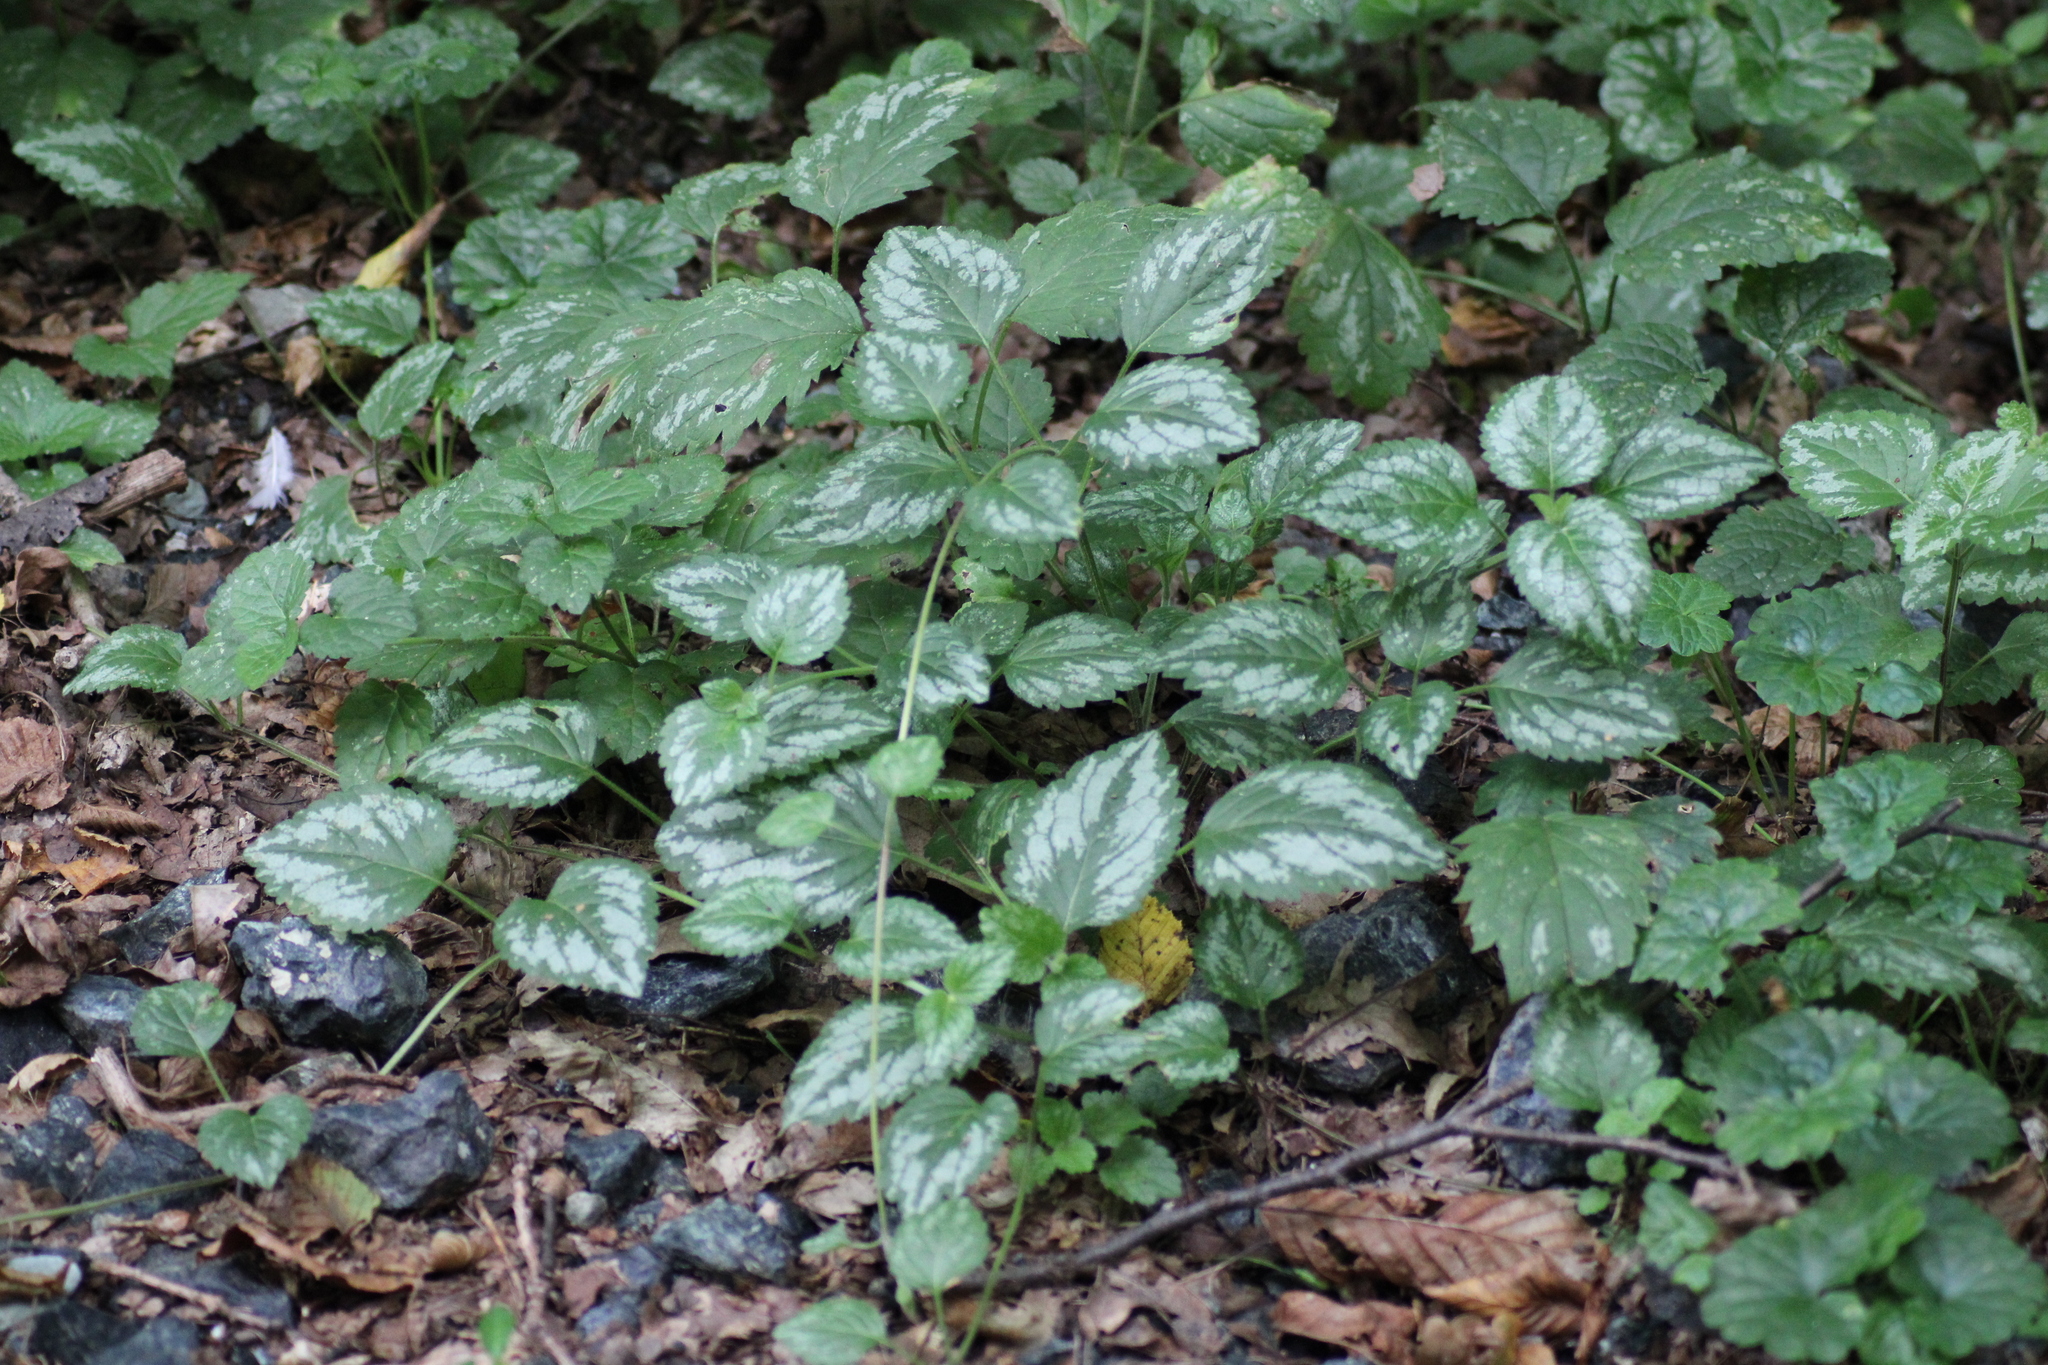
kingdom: Plantae
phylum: Tracheophyta
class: Magnoliopsida
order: Lamiales
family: Lamiaceae
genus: Lamium
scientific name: Lamium galeobdolon
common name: Yellow archangel
